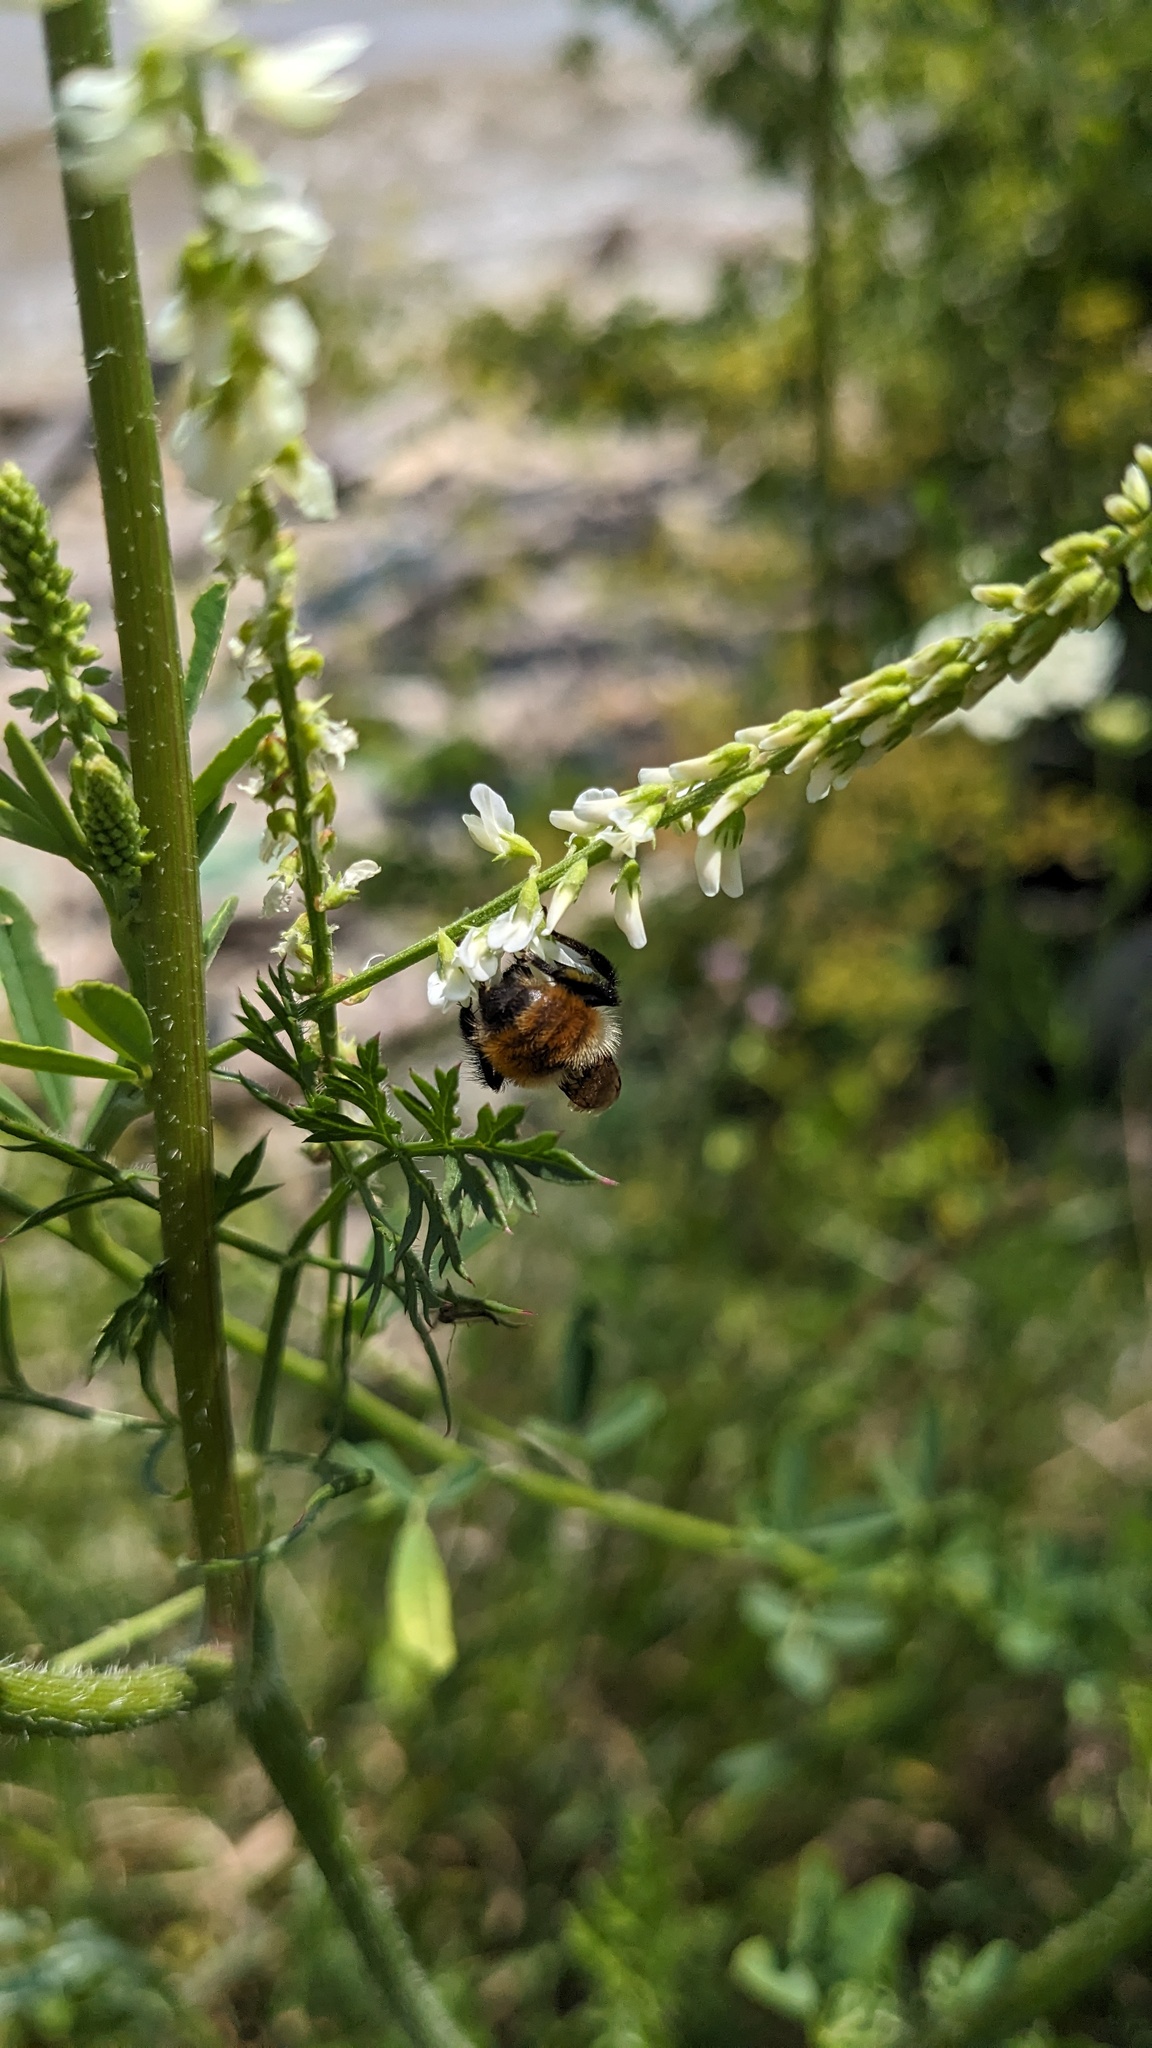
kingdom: Animalia
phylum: Arthropoda
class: Insecta
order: Hymenoptera
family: Apidae
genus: Bombus
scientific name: Bombus rufocinctus
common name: Red-belted bumble bee
